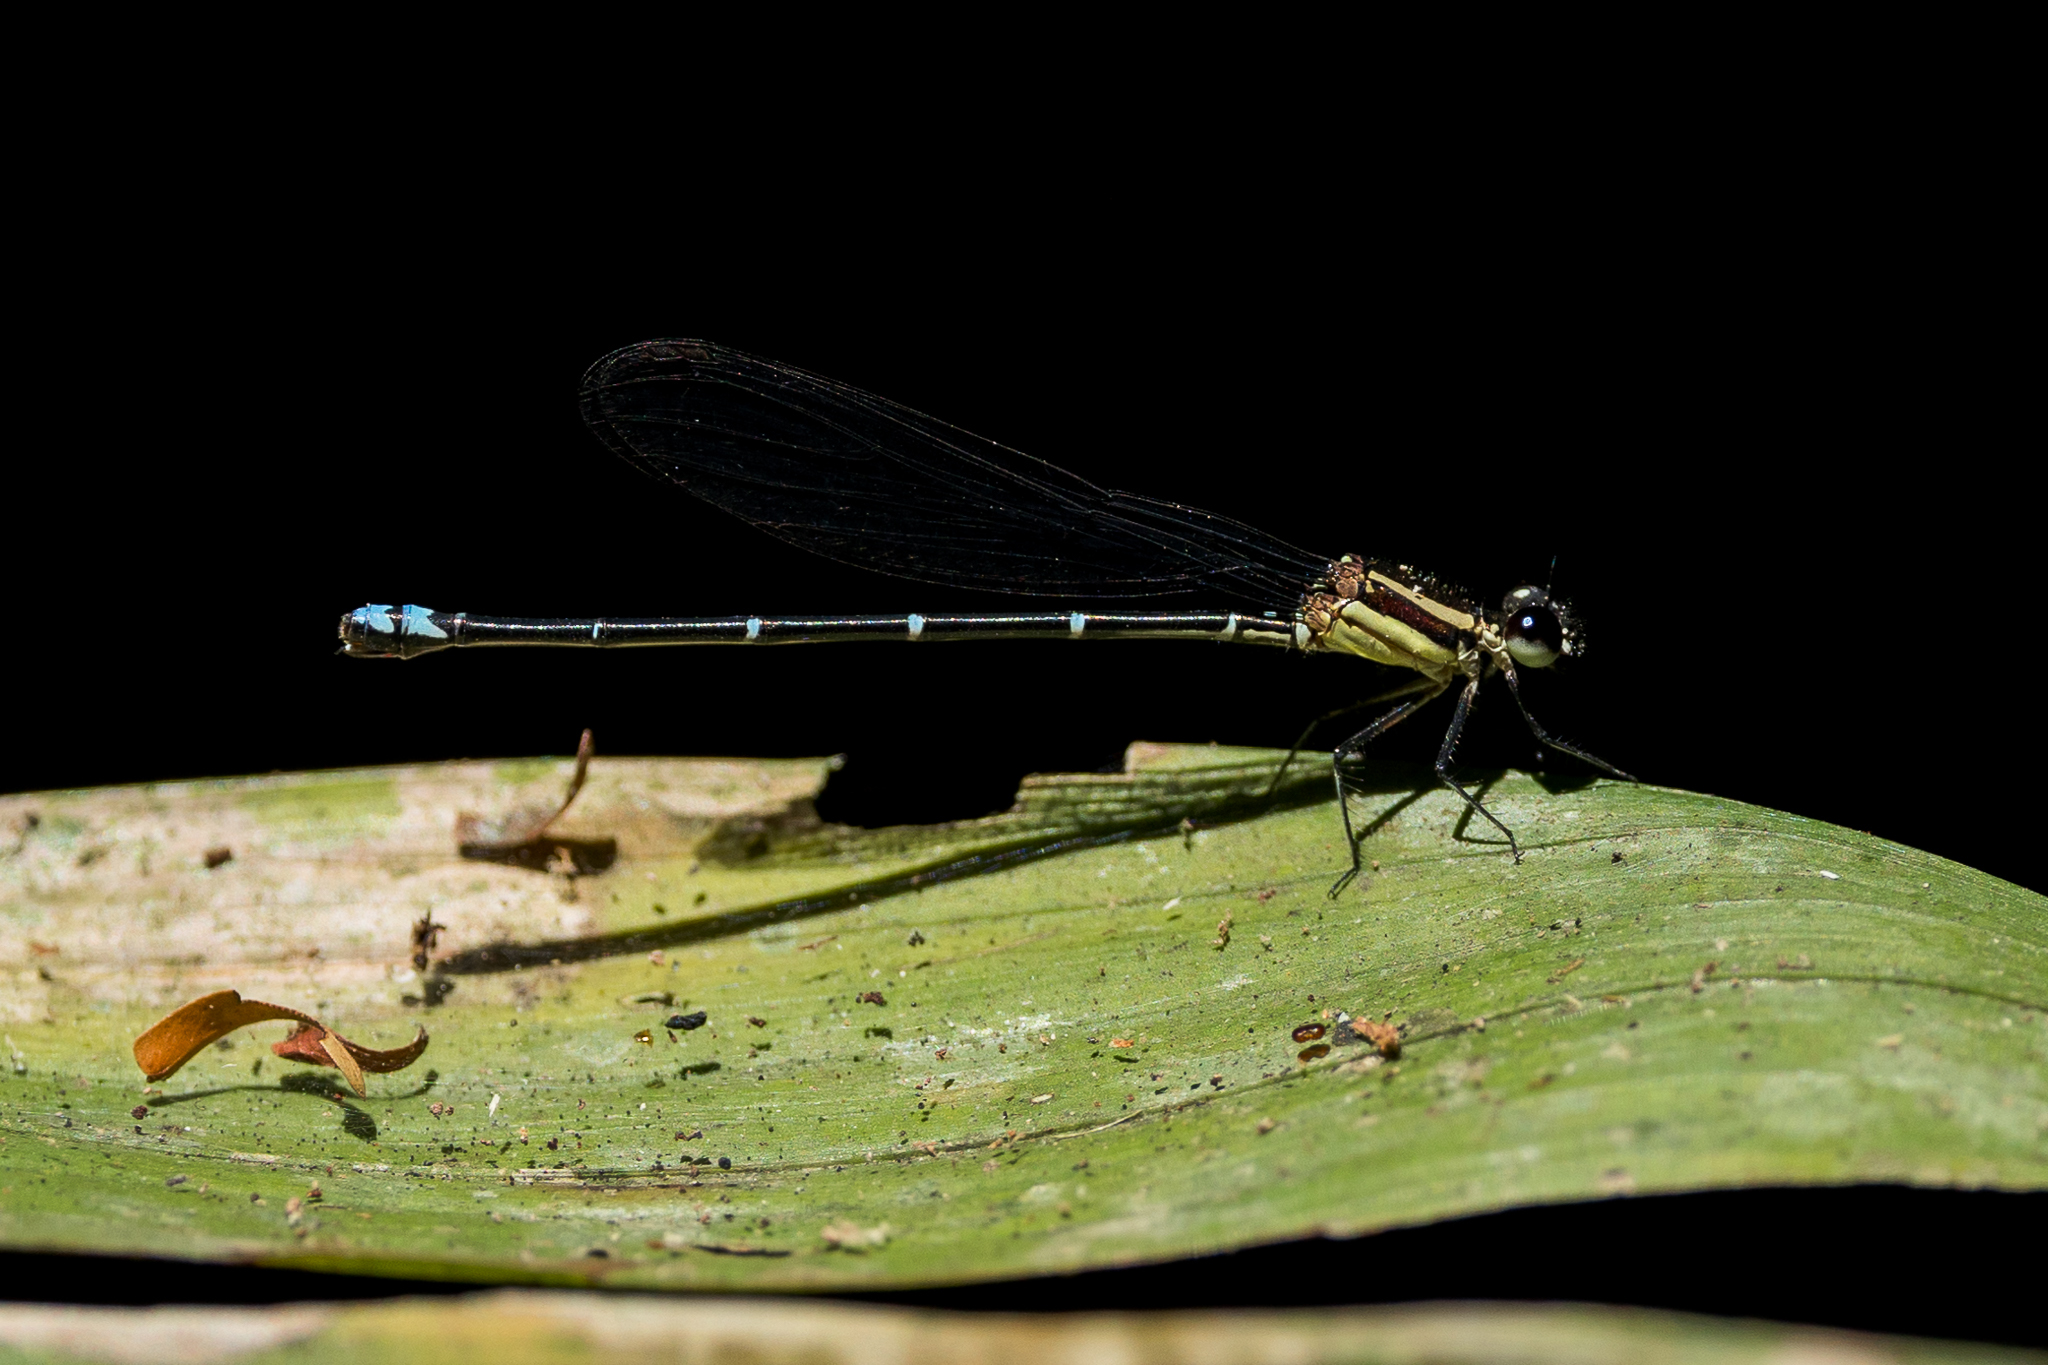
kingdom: Animalia
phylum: Arthropoda
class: Insecta
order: Odonata
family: Coenagrionidae
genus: Argia
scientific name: Argia oculata
